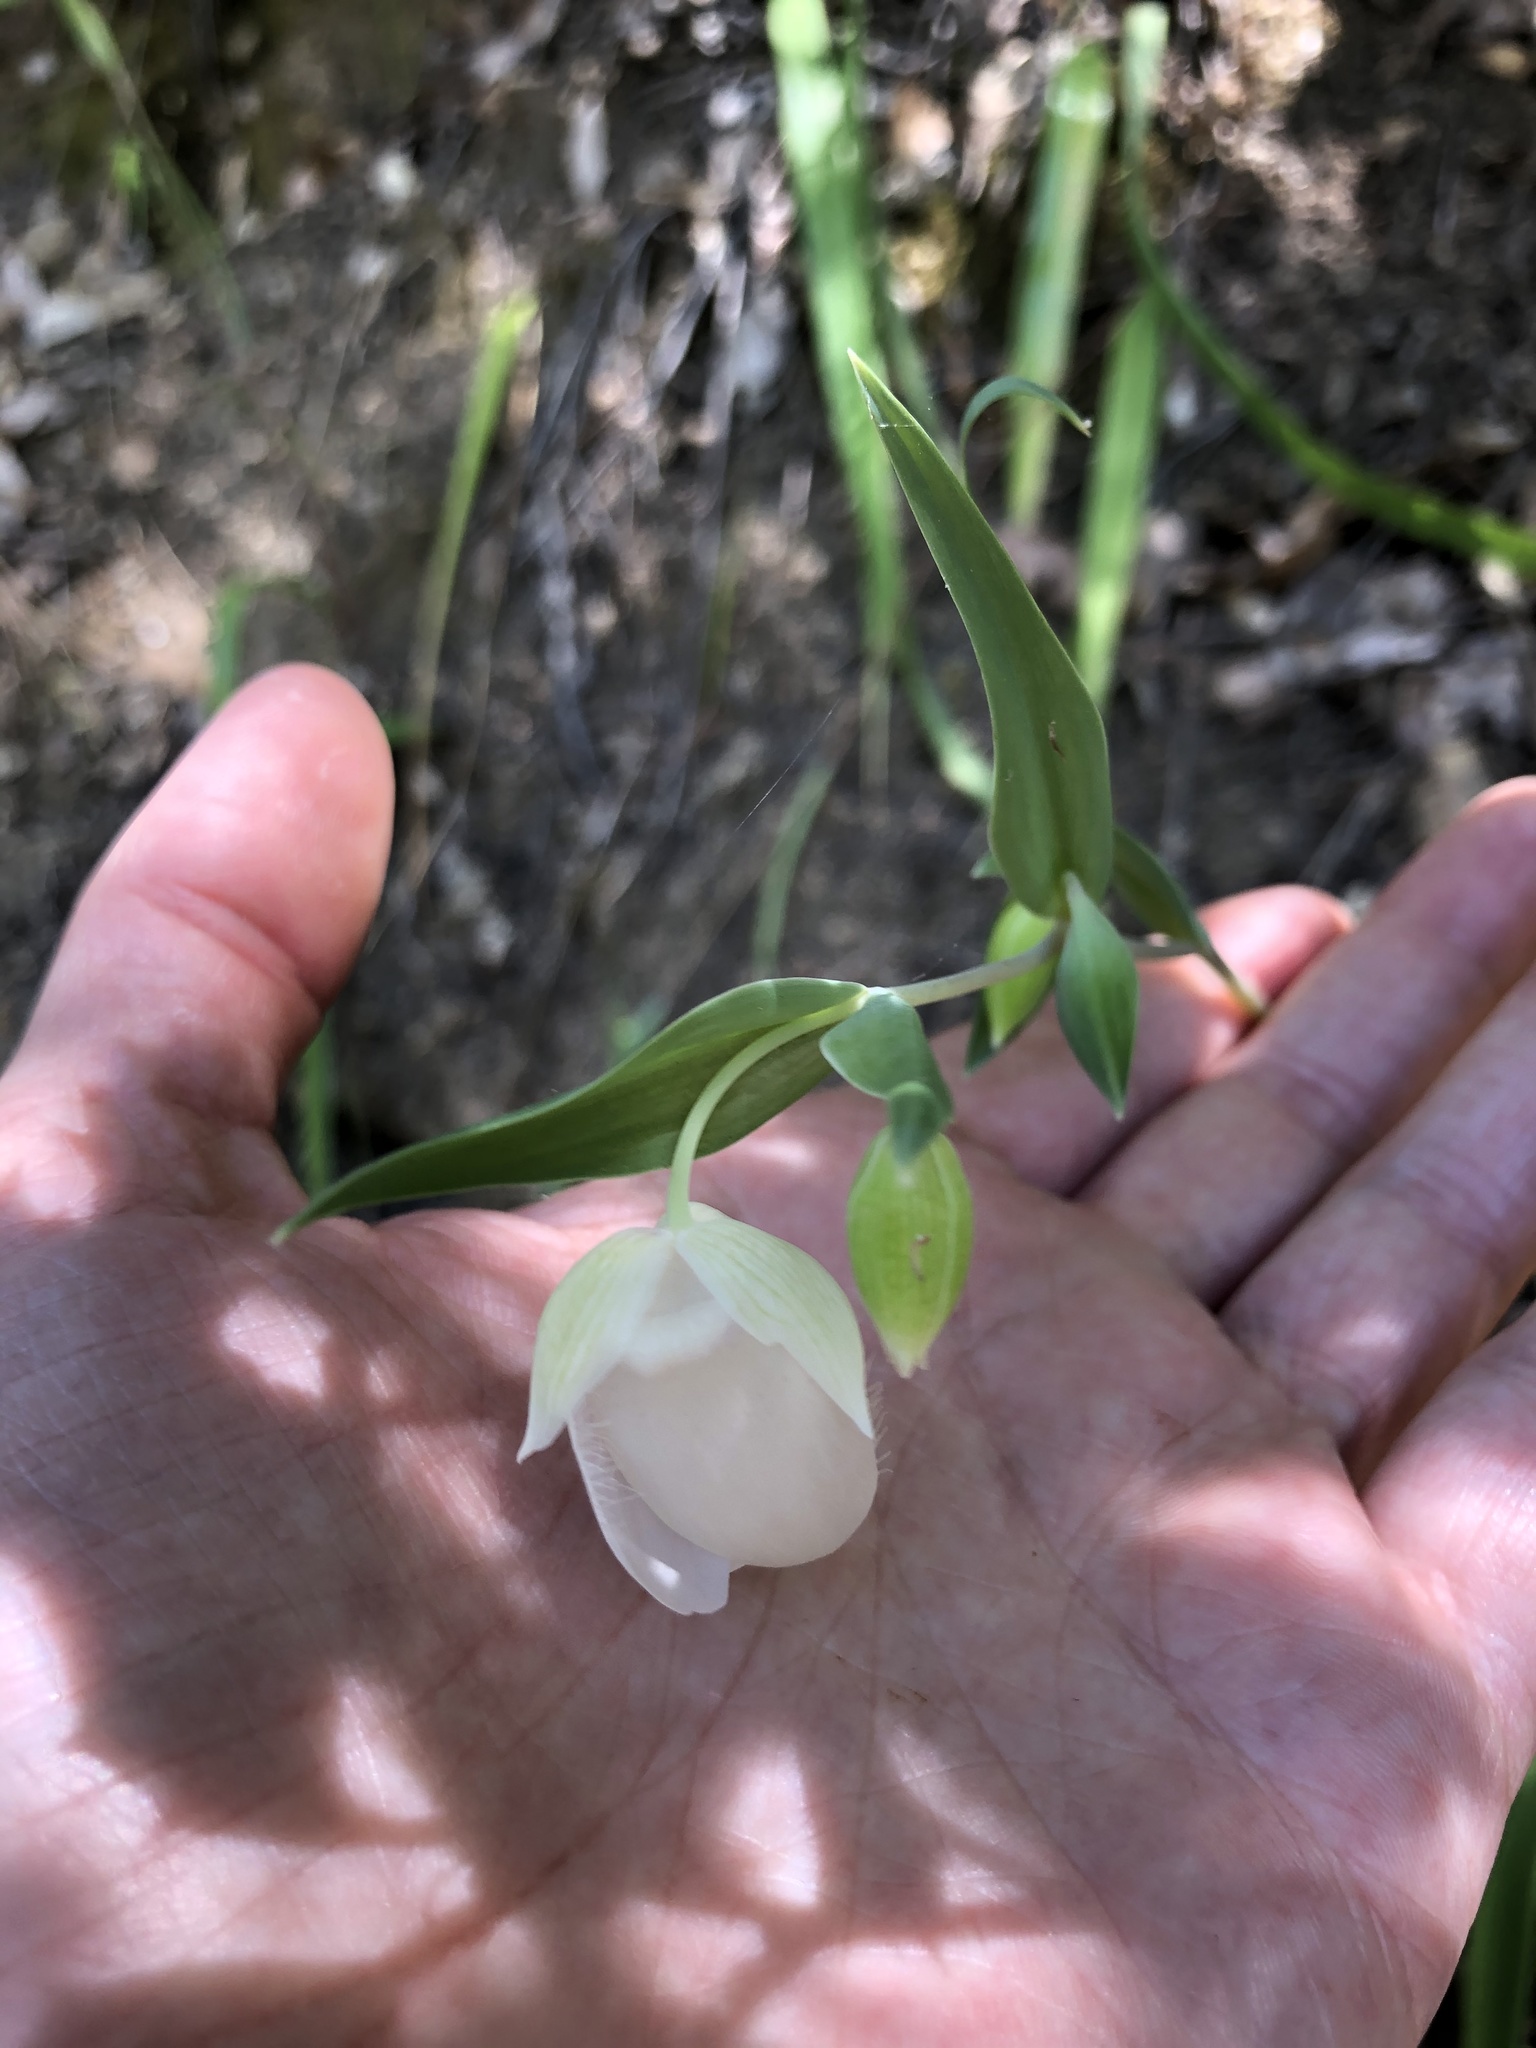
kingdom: Plantae
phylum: Tracheophyta
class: Liliopsida
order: Liliales
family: Liliaceae
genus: Calochortus
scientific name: Calochortus albus
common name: Fairy-lantern
